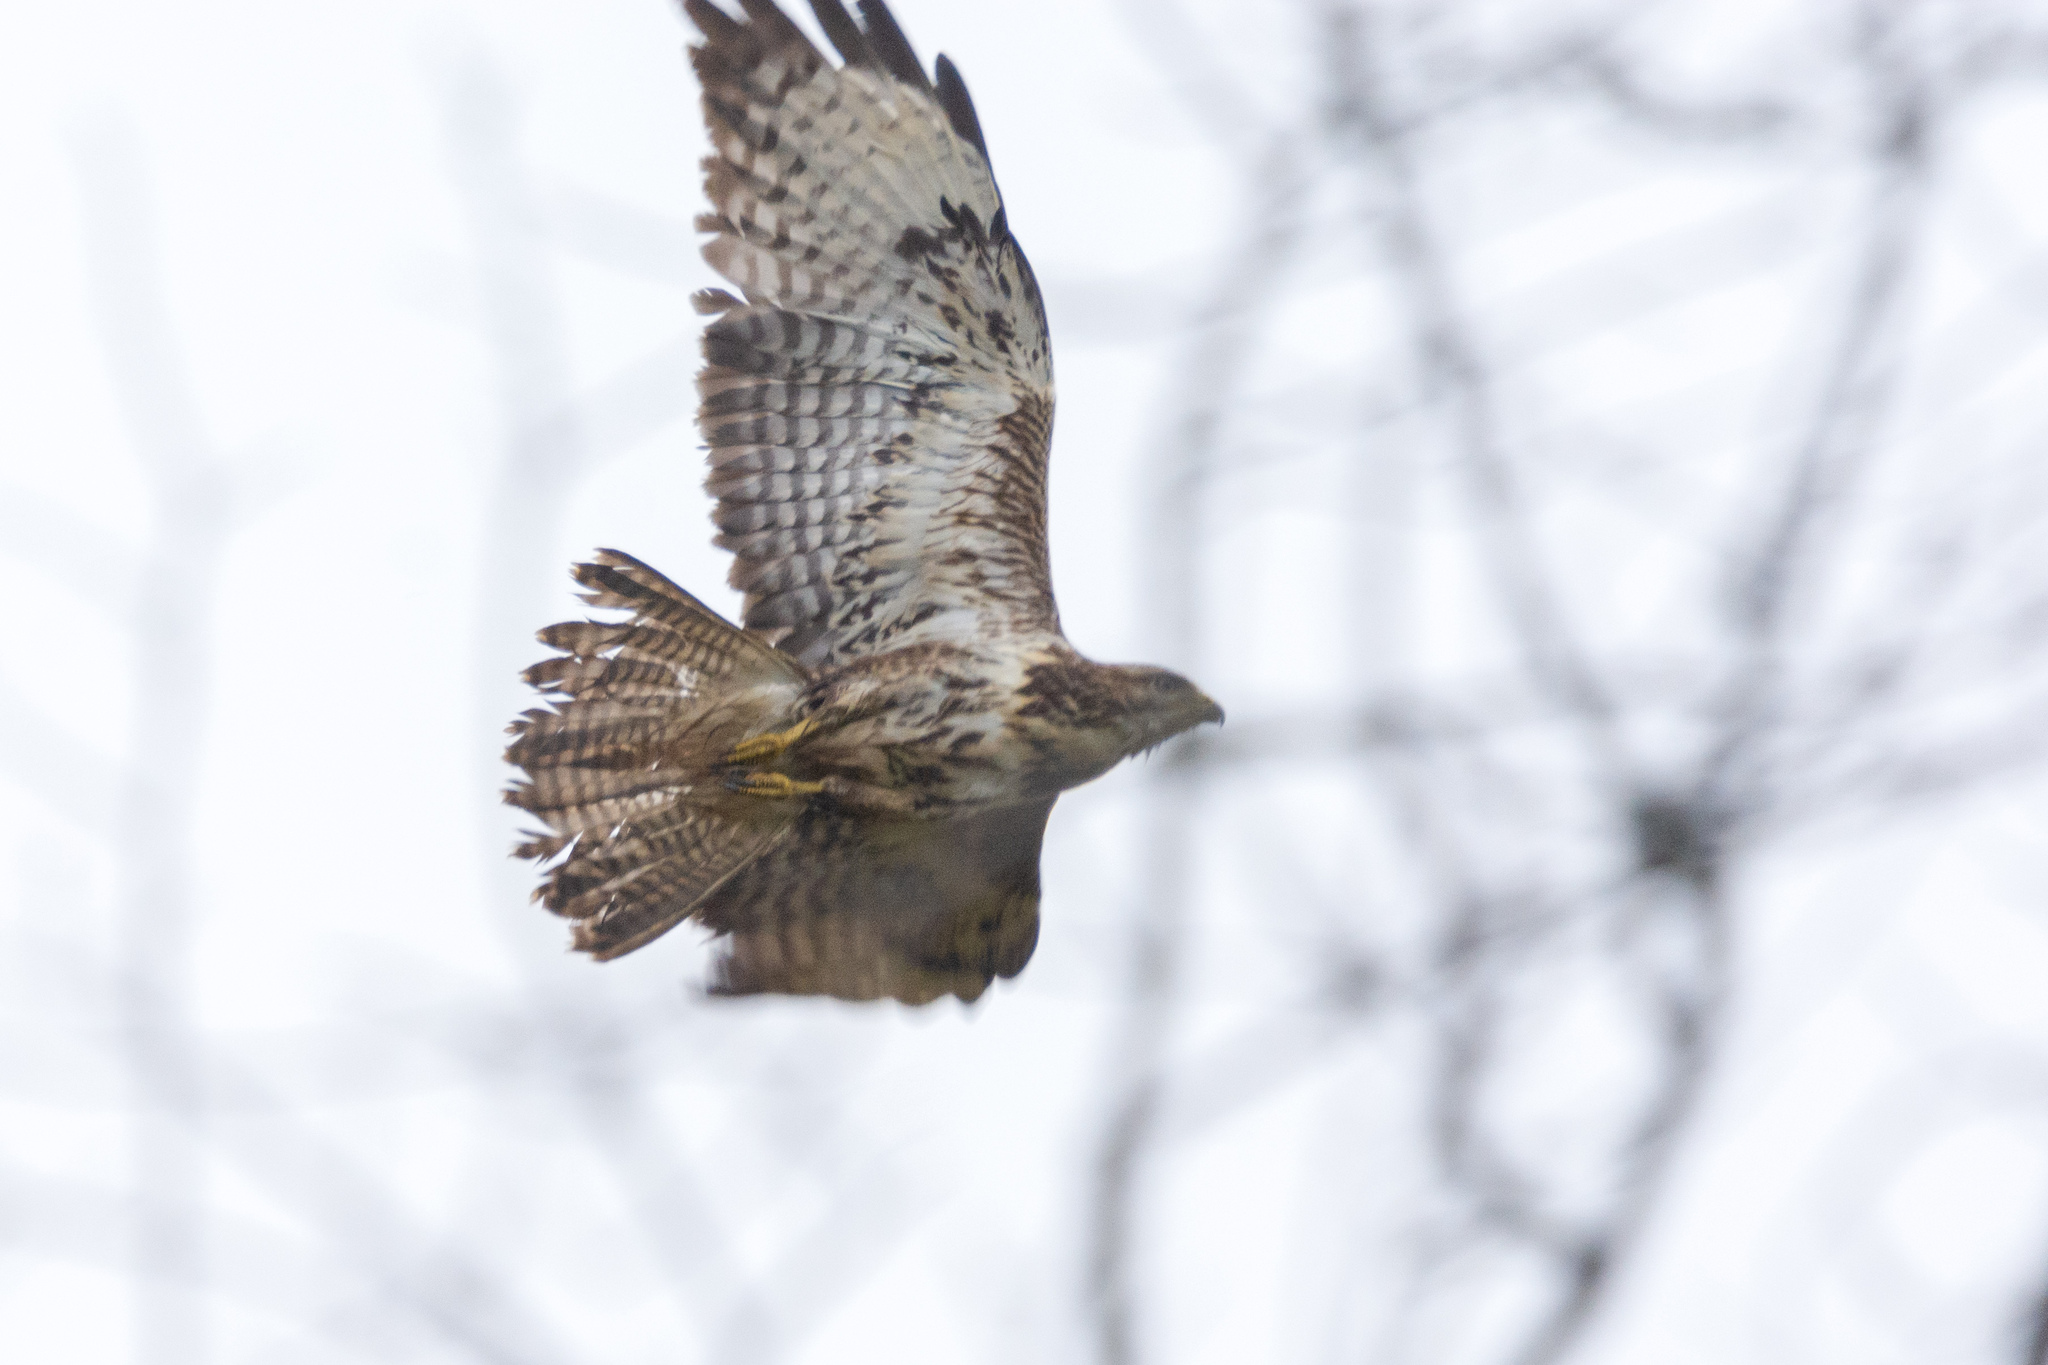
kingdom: Animalia
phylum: Chordata
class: Aves
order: Accipitriformes
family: Accipitridae
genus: Buteo
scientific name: Buteo buteo
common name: Common buzzard
